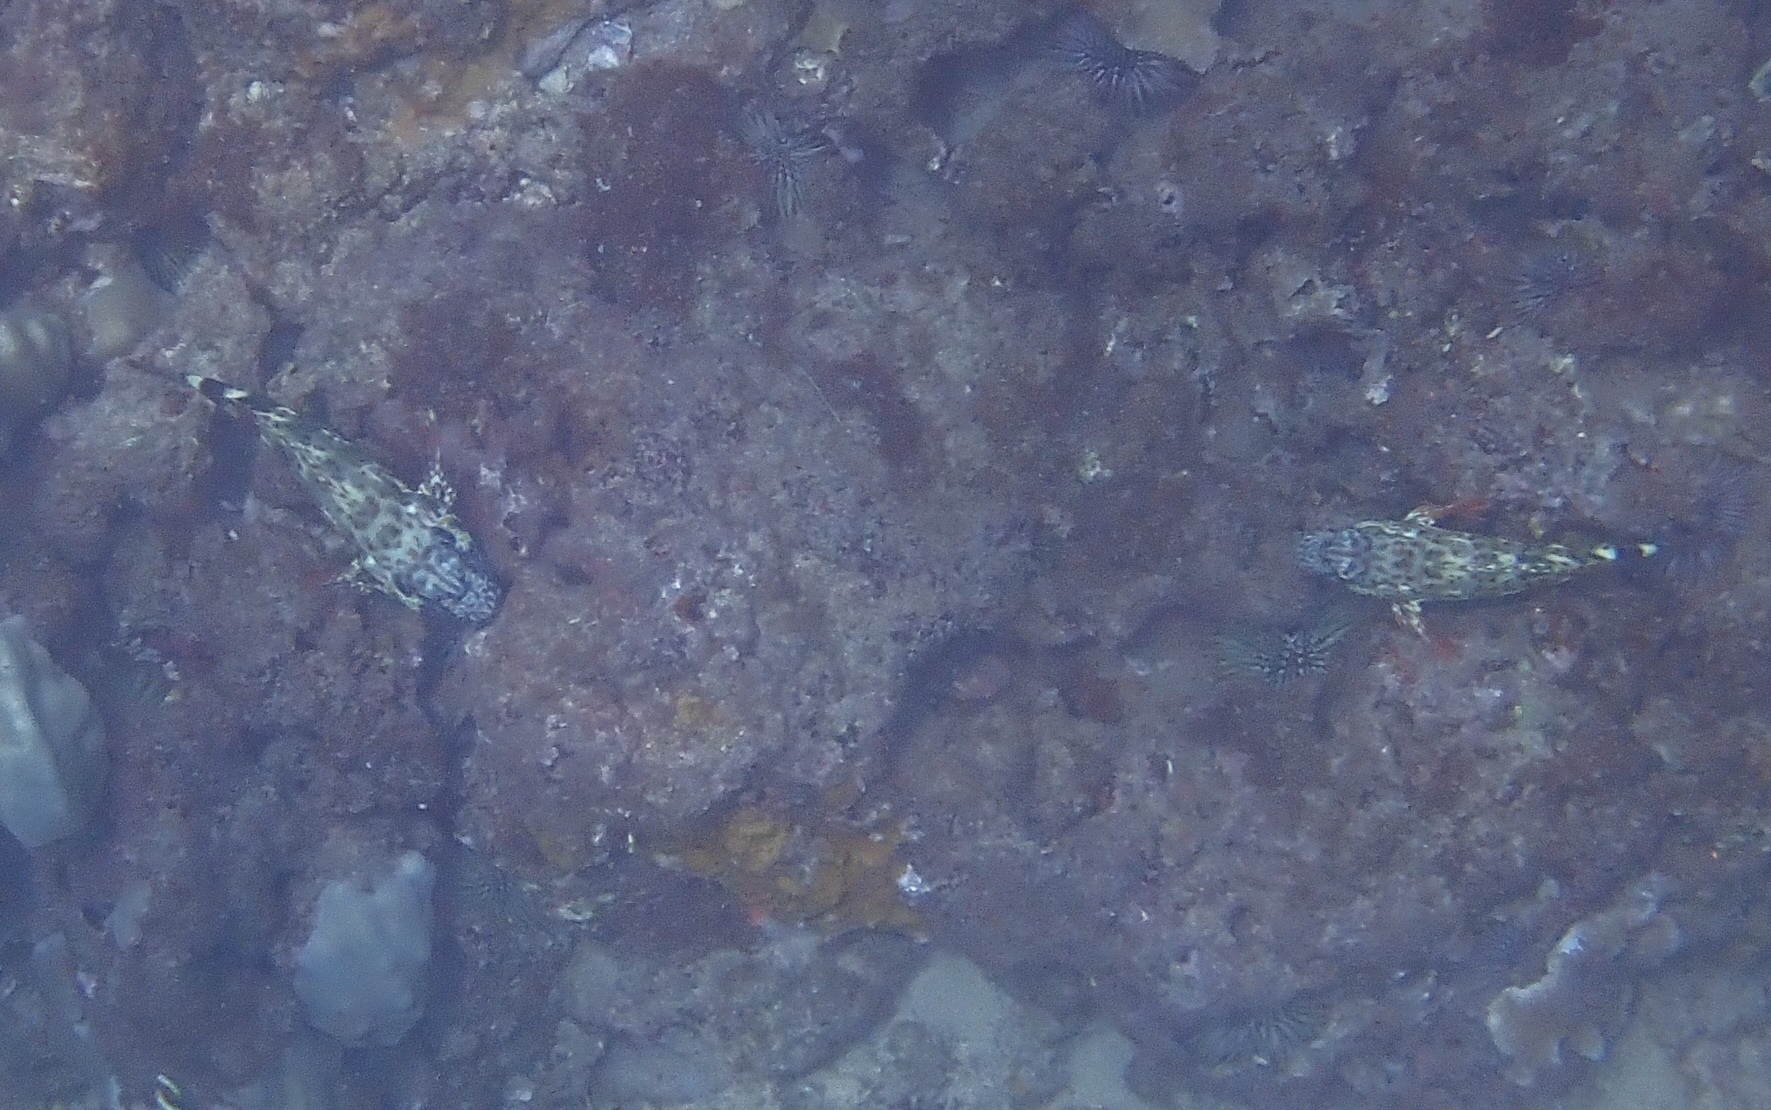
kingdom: Animalia
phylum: Chordata
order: Perciformes
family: Cirrhitidae
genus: Cirrhitus
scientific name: Cirrhitus pinnulatus
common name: Stocky hawkfish
